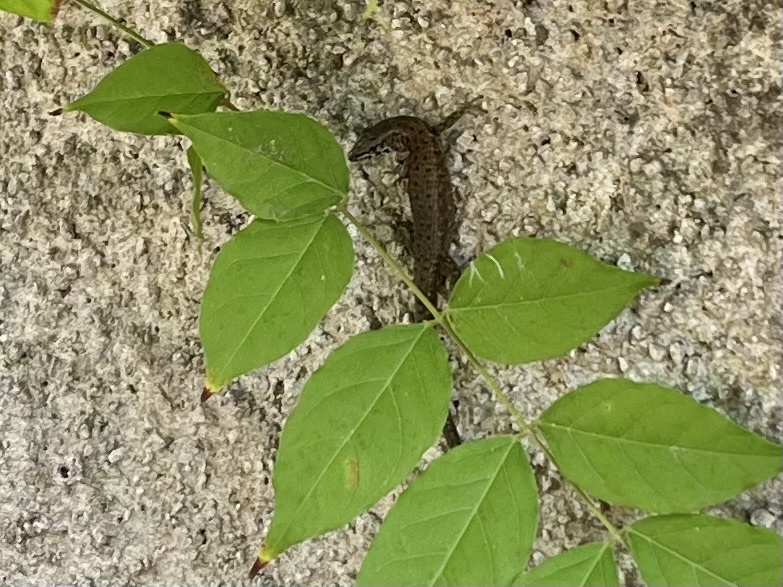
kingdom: Animalia
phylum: Chordata
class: Squamata
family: Lacertidae
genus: Algyroides
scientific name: Algyroides nigropunctatus
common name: Blue-throated keeled lizard
